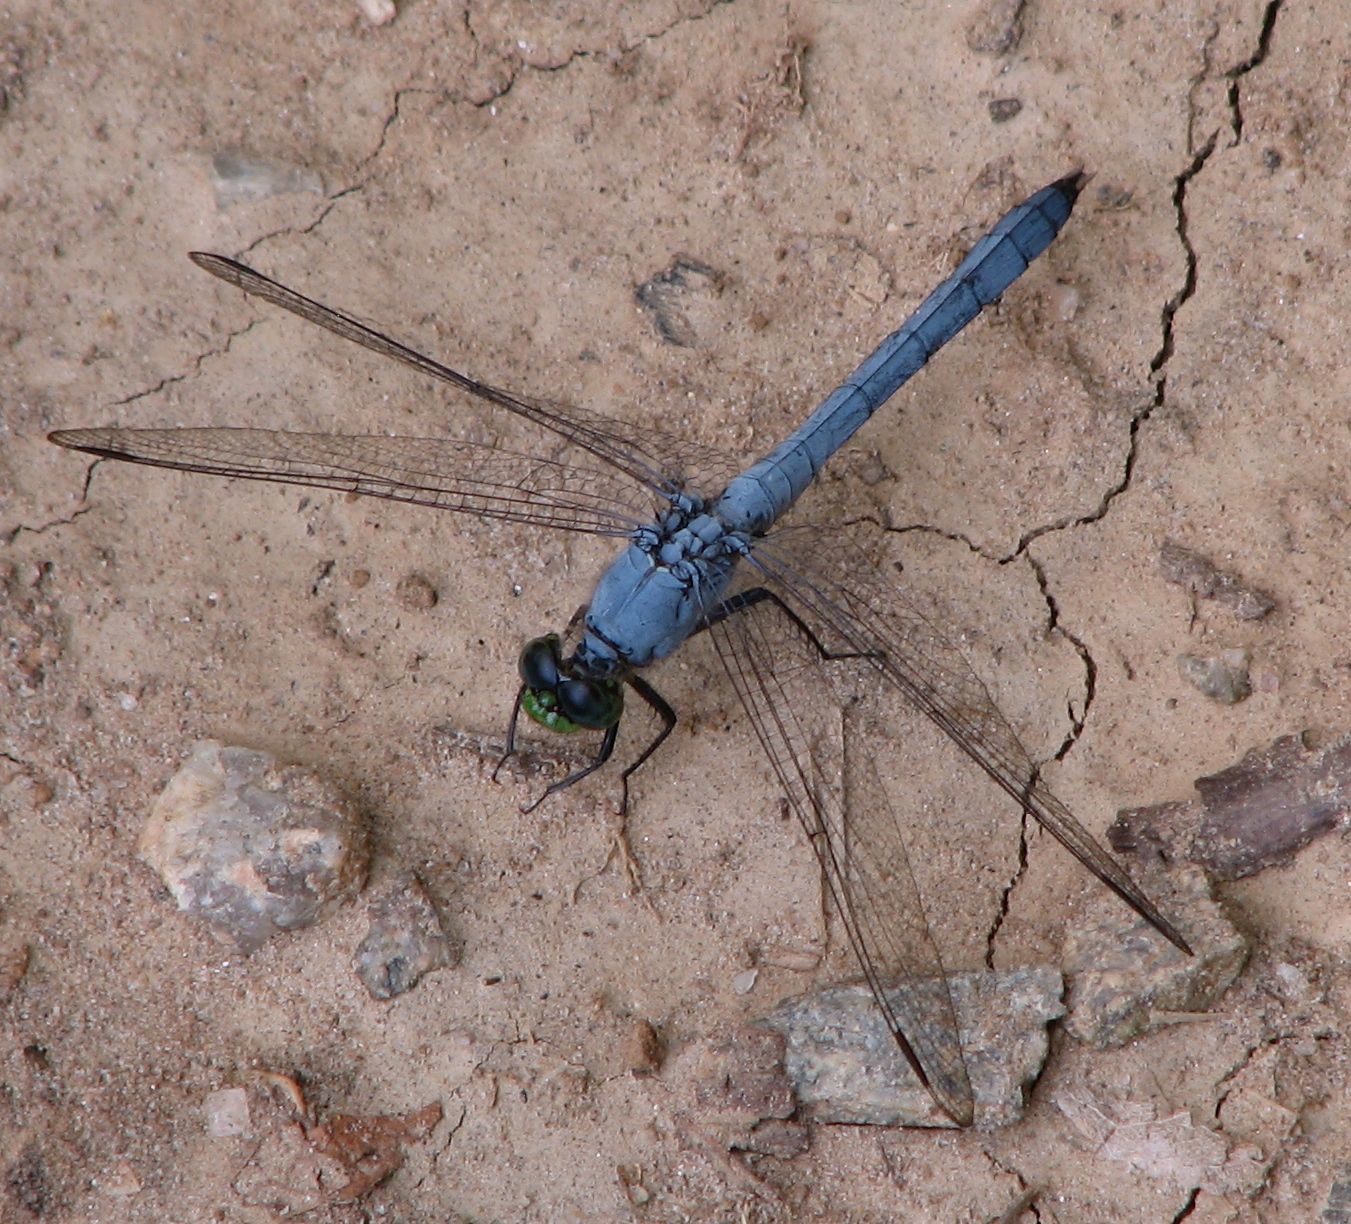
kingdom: Animalia
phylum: Arthropoda
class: Insecta
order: Odonata
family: Libellulidae
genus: Erythemis
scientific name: Erythemis simplicicollis
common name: Eastern pondhawk
